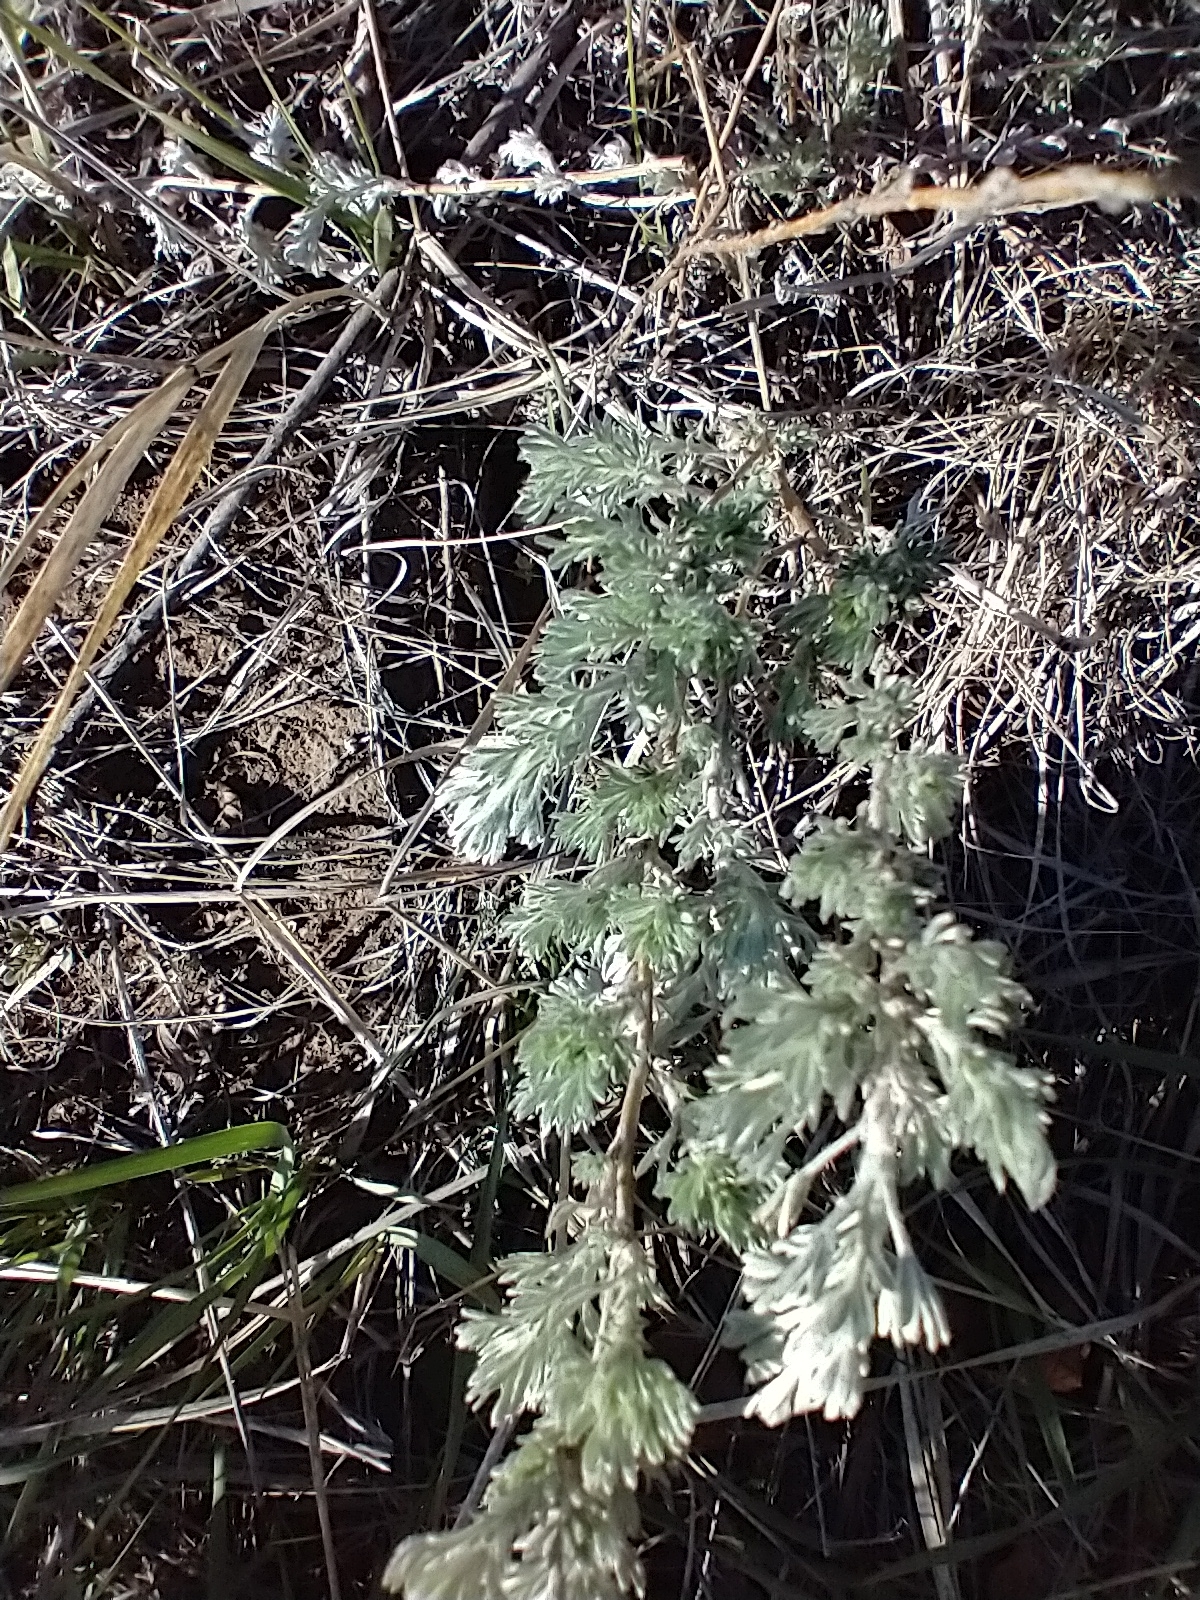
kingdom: Plantae
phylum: Tracheophyta
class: Magnoliopsida
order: Asterales
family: Asteraceae
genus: Artemisia
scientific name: Artemisia frigida
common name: Prairie sagewort
